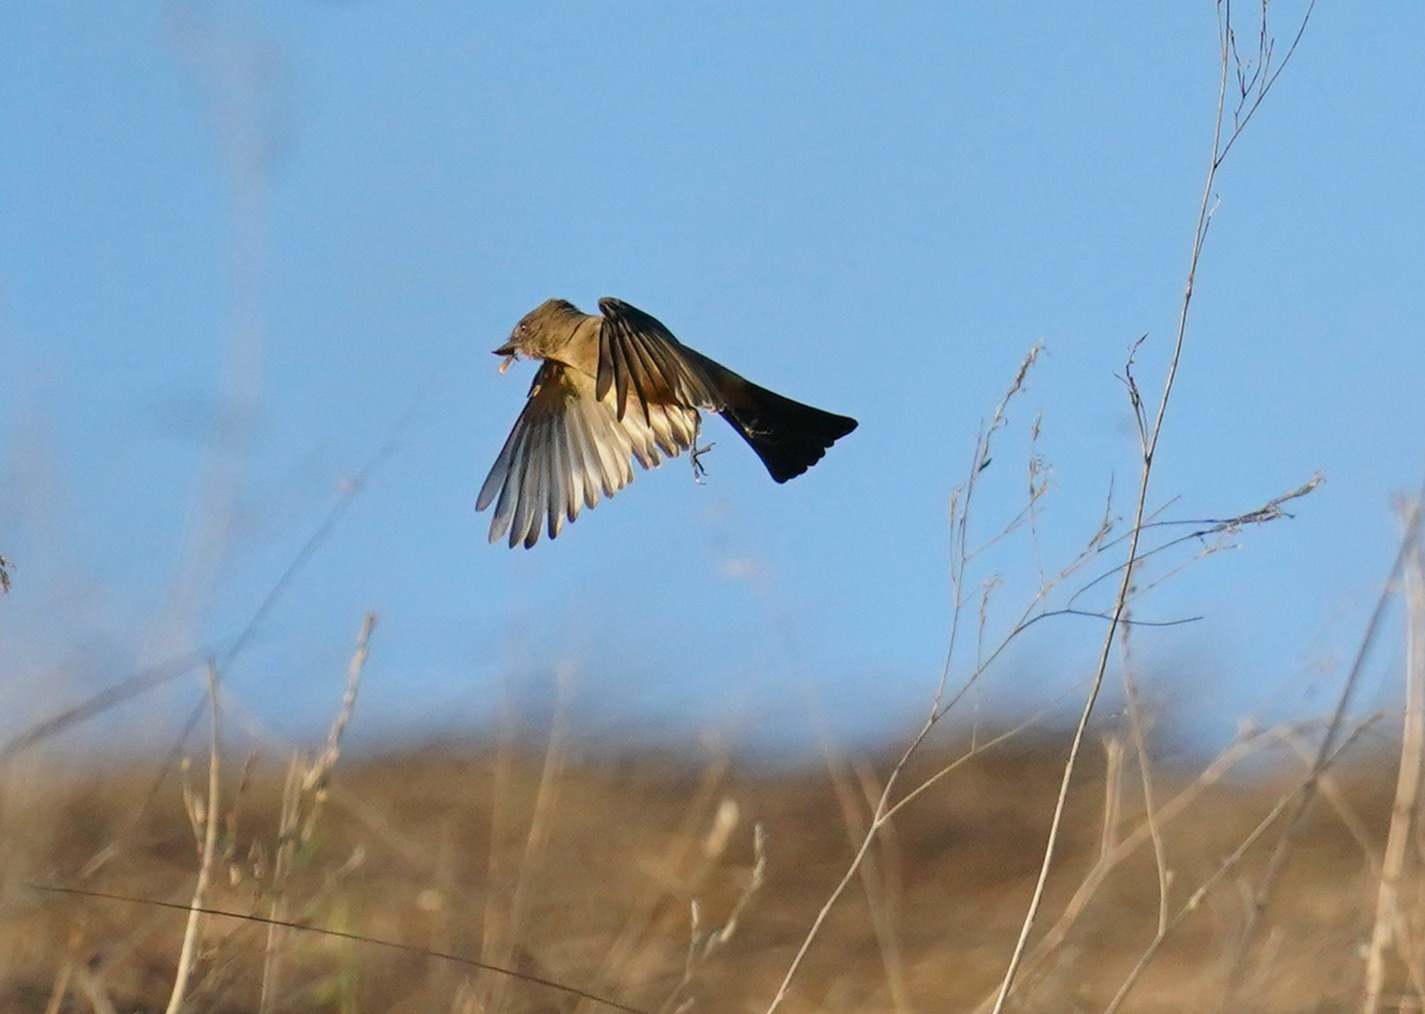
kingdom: Animalia
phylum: Chordata
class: Aves
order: Passeriformes
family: Tyrannidae
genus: Sayornis
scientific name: Sayornis saya
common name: Say's phoebe
